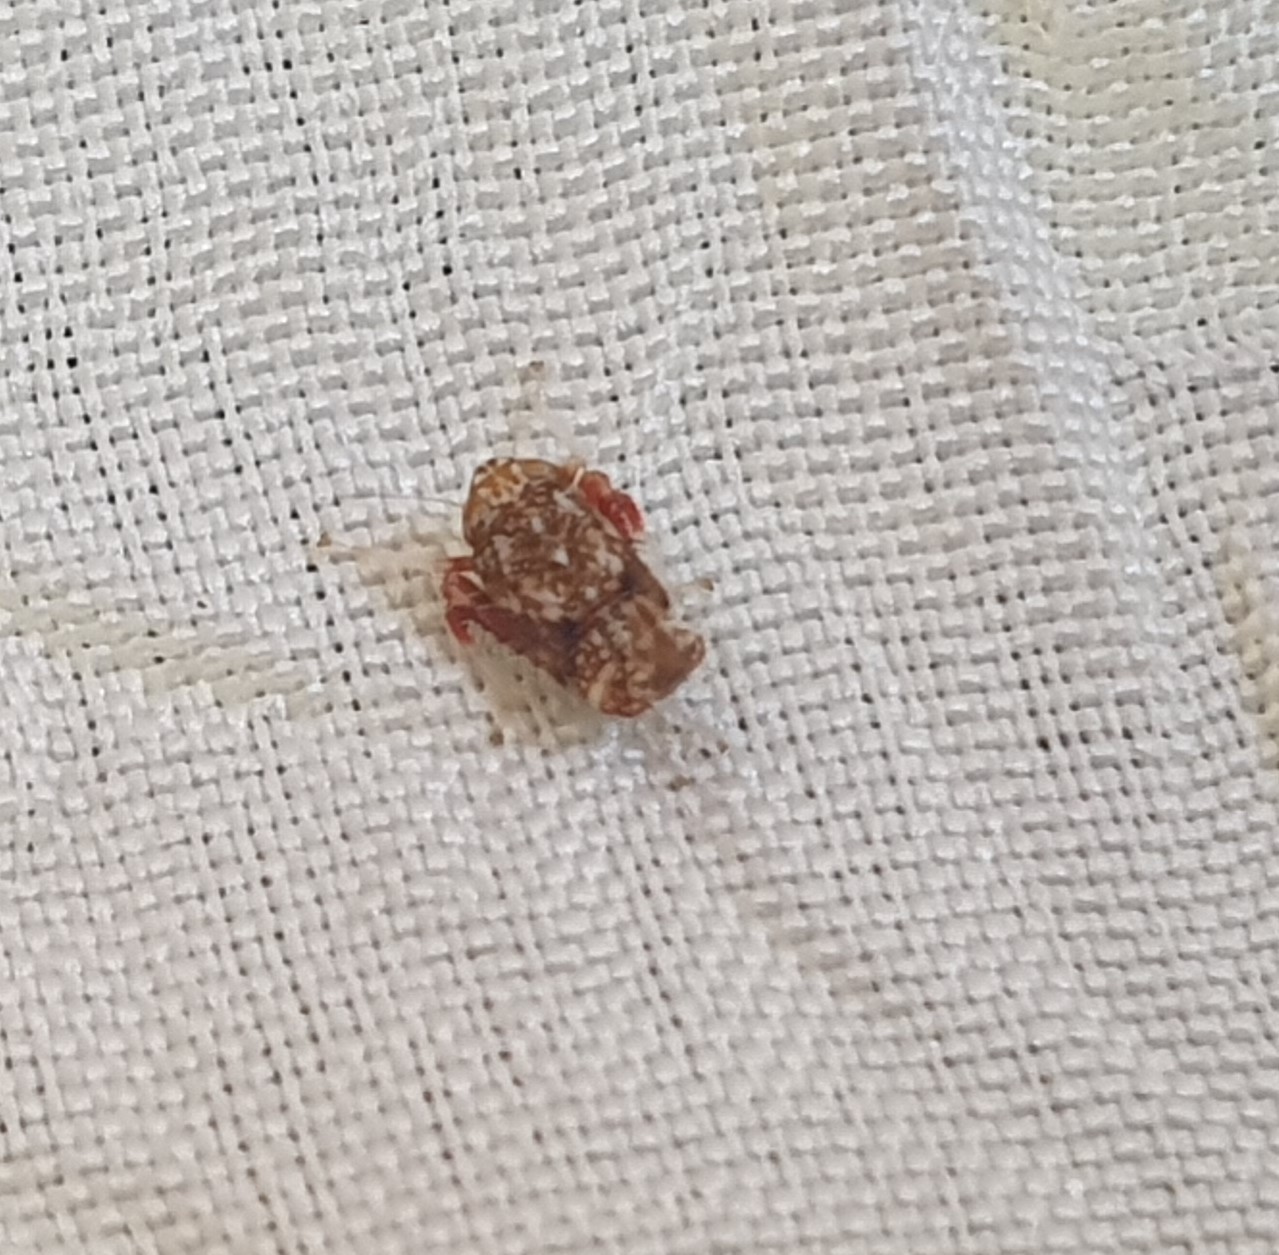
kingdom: Animalia
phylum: Arthropoda
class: Insecta
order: Hemiptera
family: Cicadellidae
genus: Orientus
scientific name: Orientus ishidae
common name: Japanese leafhopper
